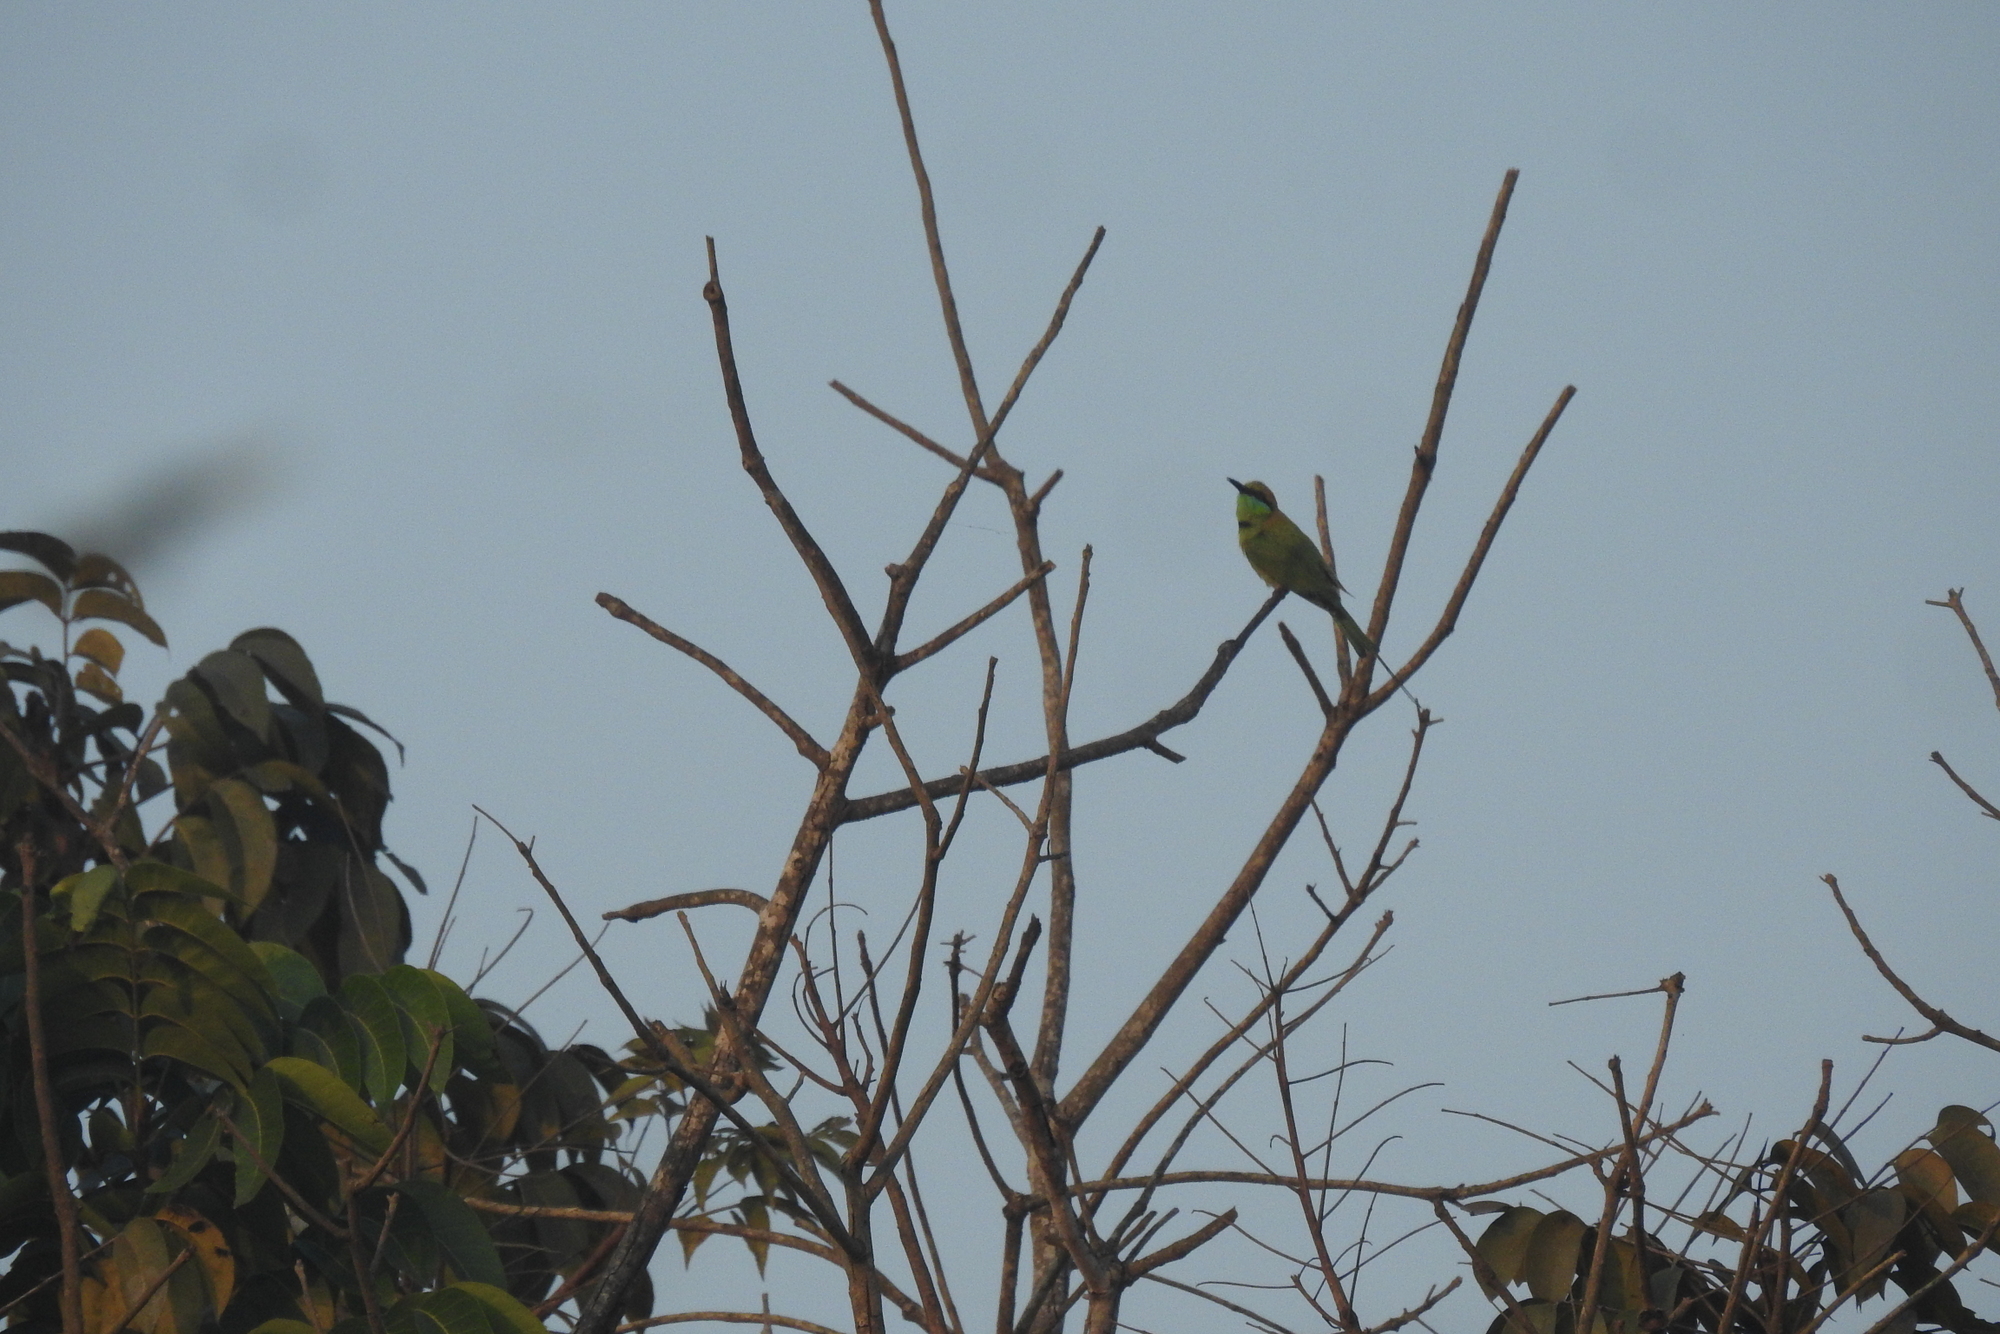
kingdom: Animalia
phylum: Chordata
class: Aves
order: Coraciiformes
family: Meropidae
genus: Merops
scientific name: Merops orientalis
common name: Green bee-eater
